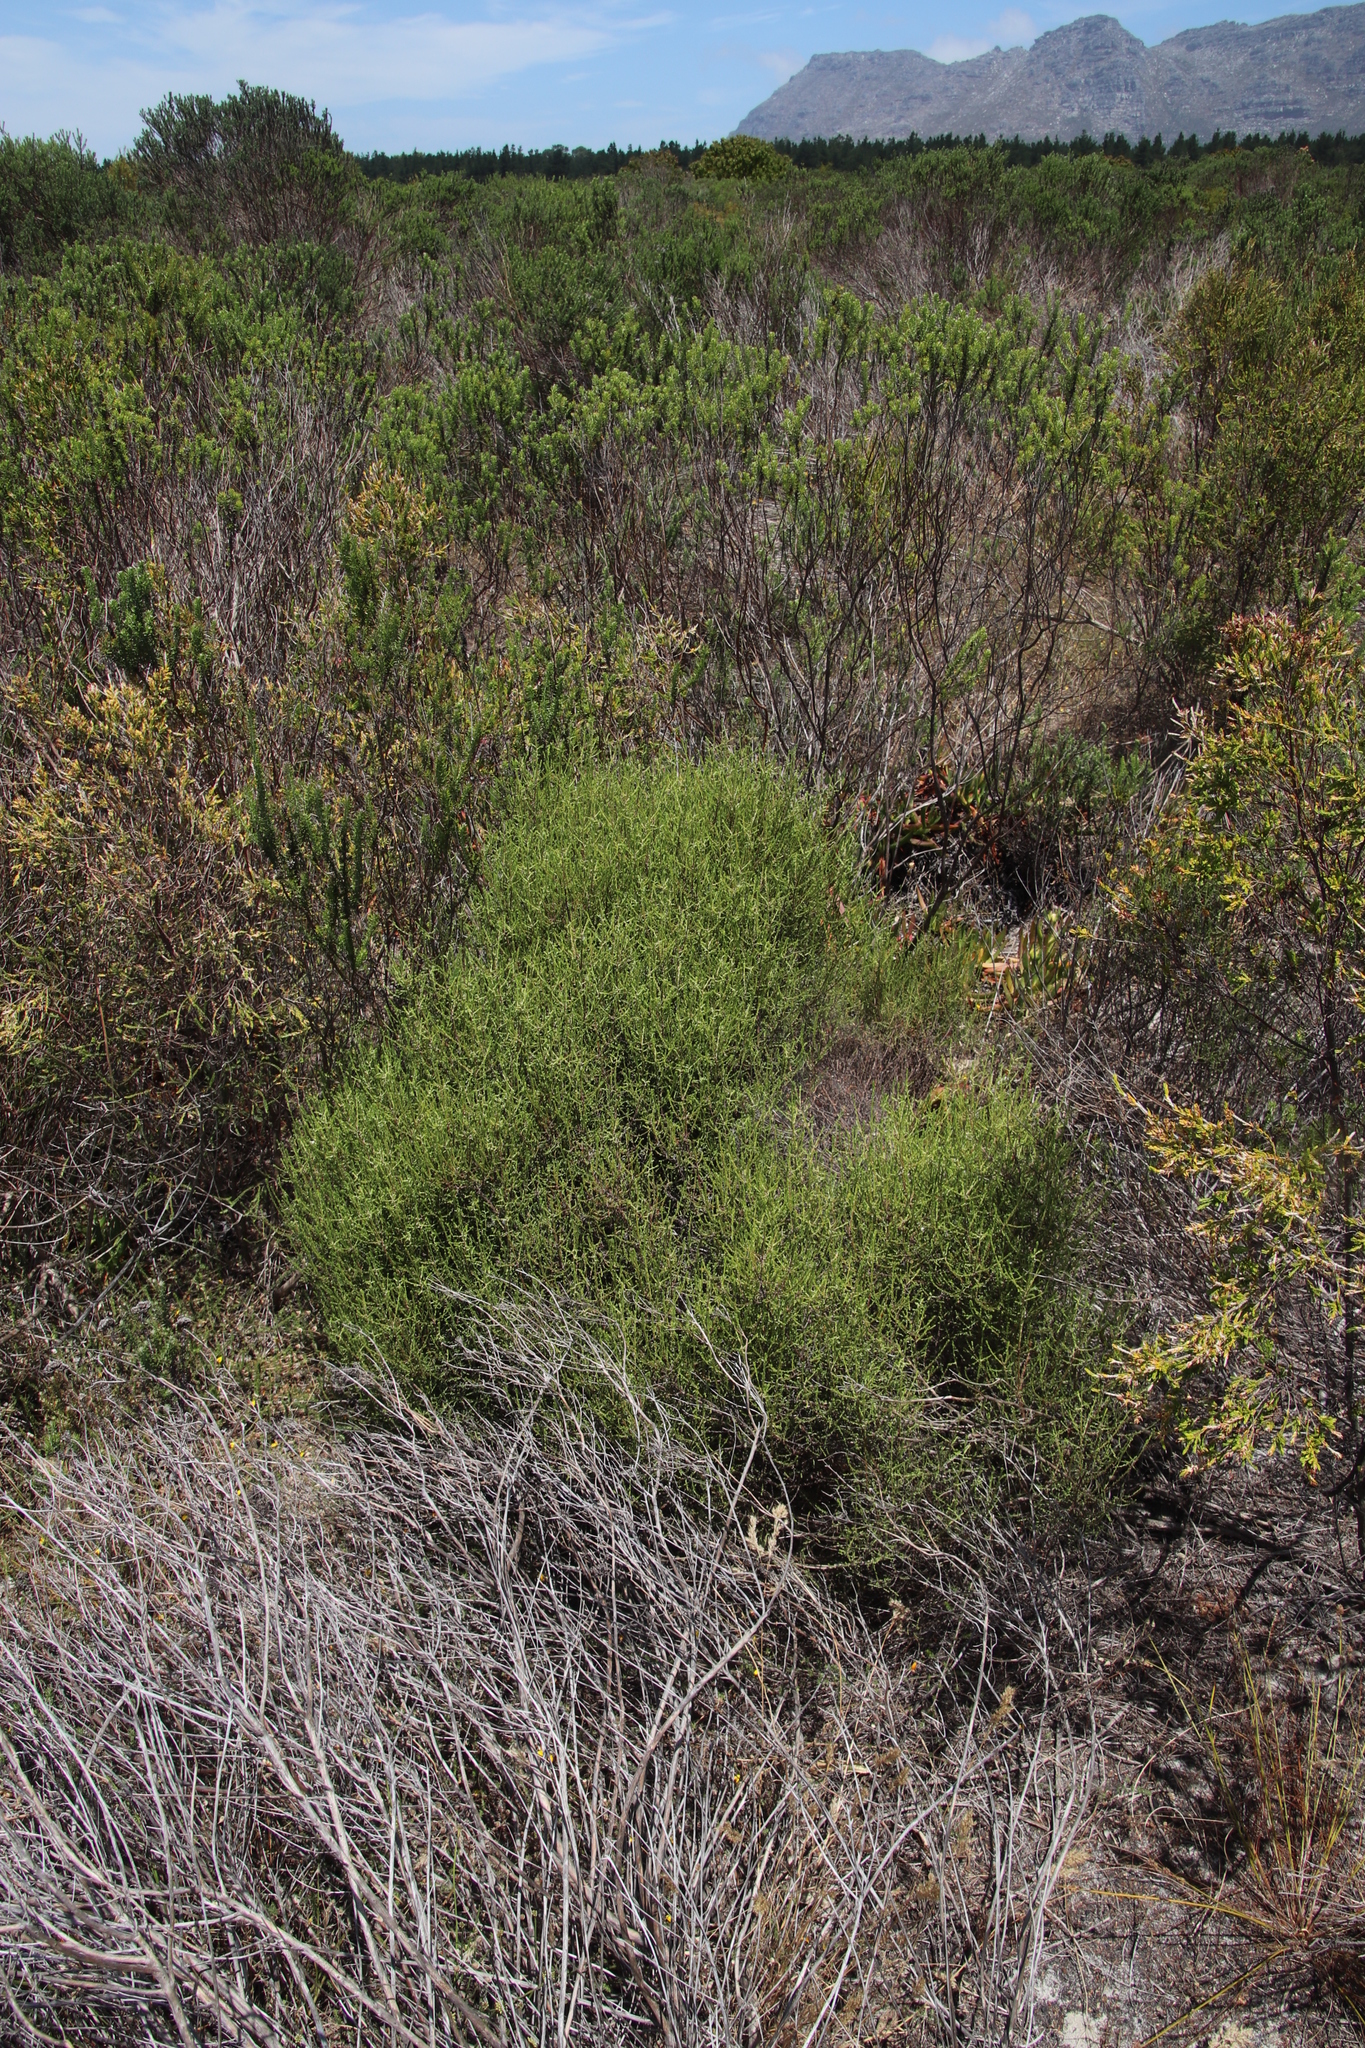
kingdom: Plantae
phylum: Tracheophyta
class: Magnoliopsida
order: Asterales
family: Asteraceae
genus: Myrovernix
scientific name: Myrovernix scaber
